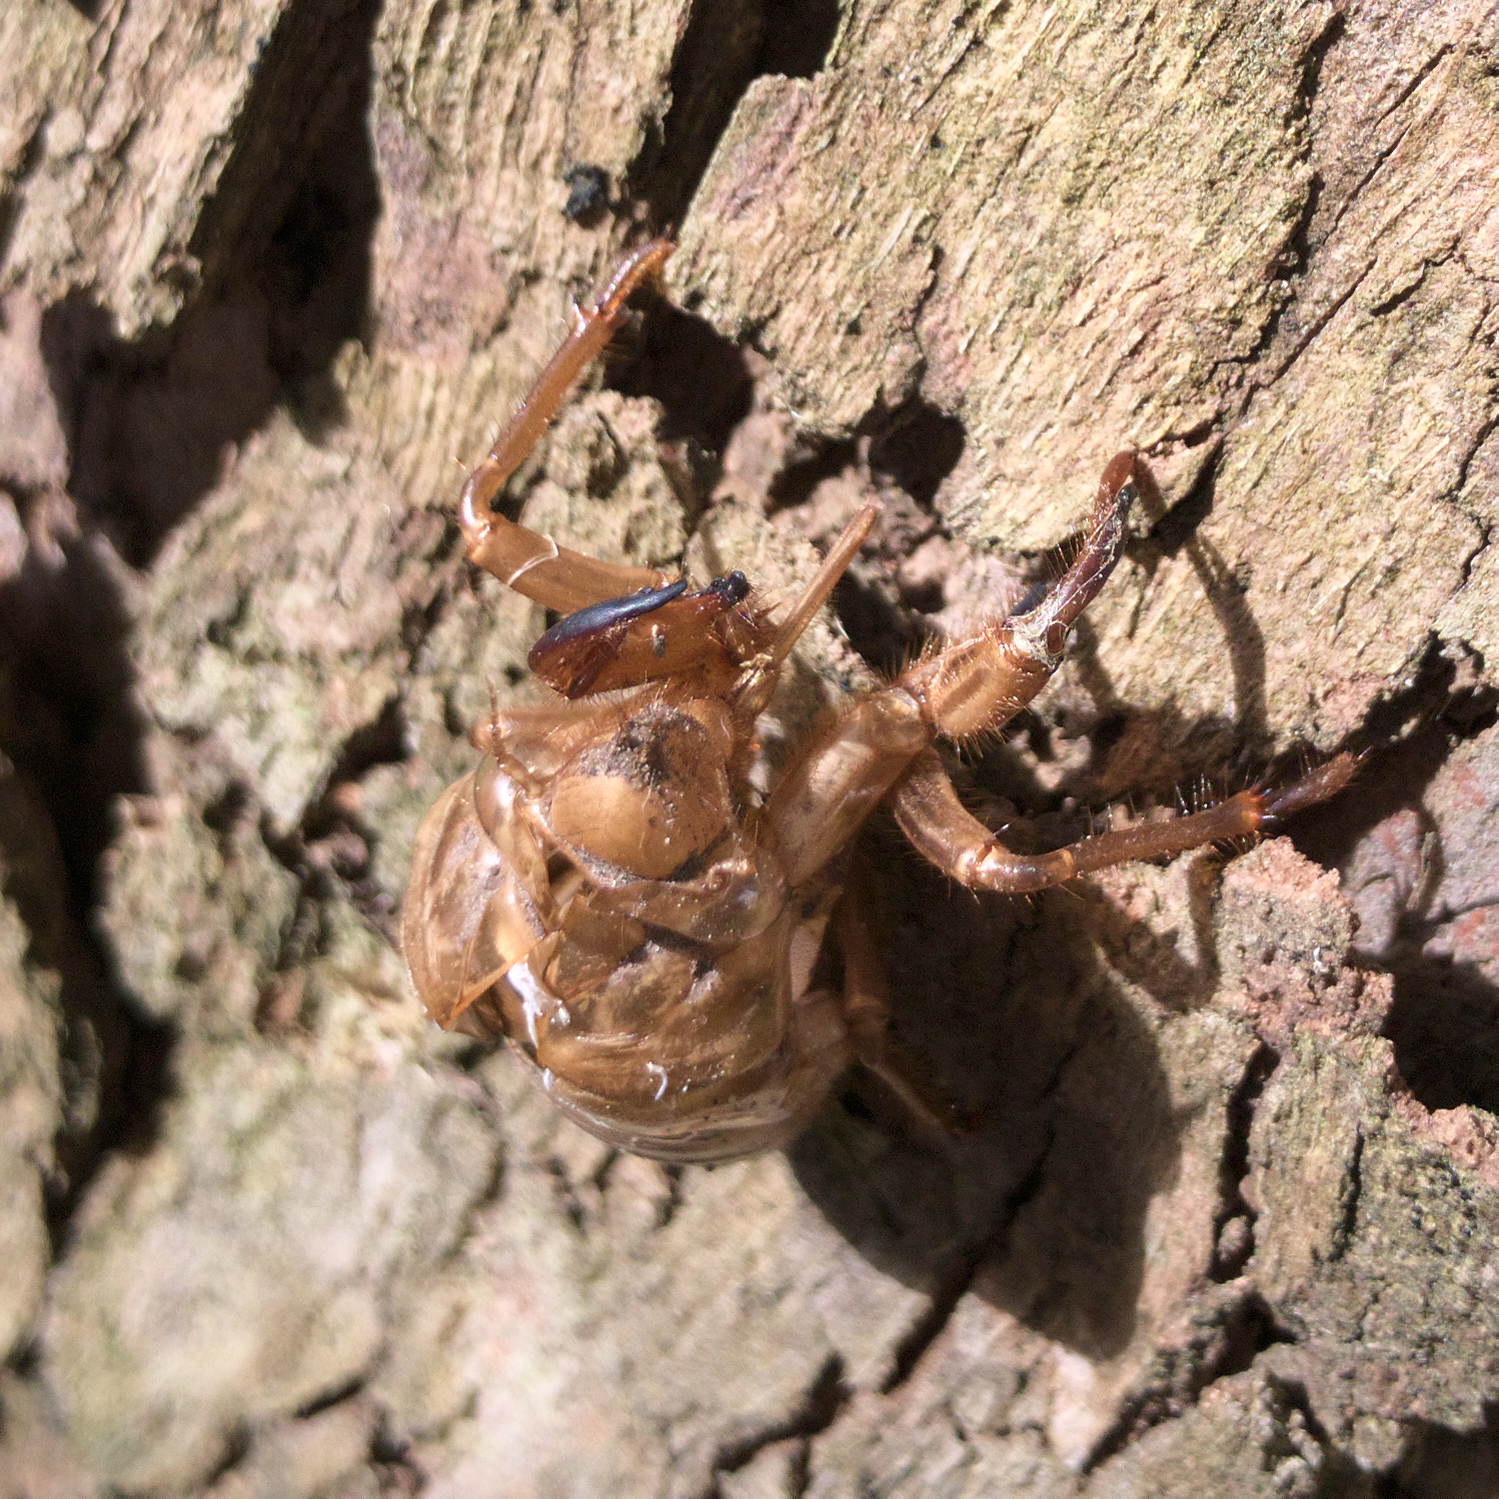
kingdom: Animalia
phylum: Arthropoda
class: Insecta
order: Hemiptera
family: Cicadidae
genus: Cyclochila
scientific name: Cyclochila australasiae
